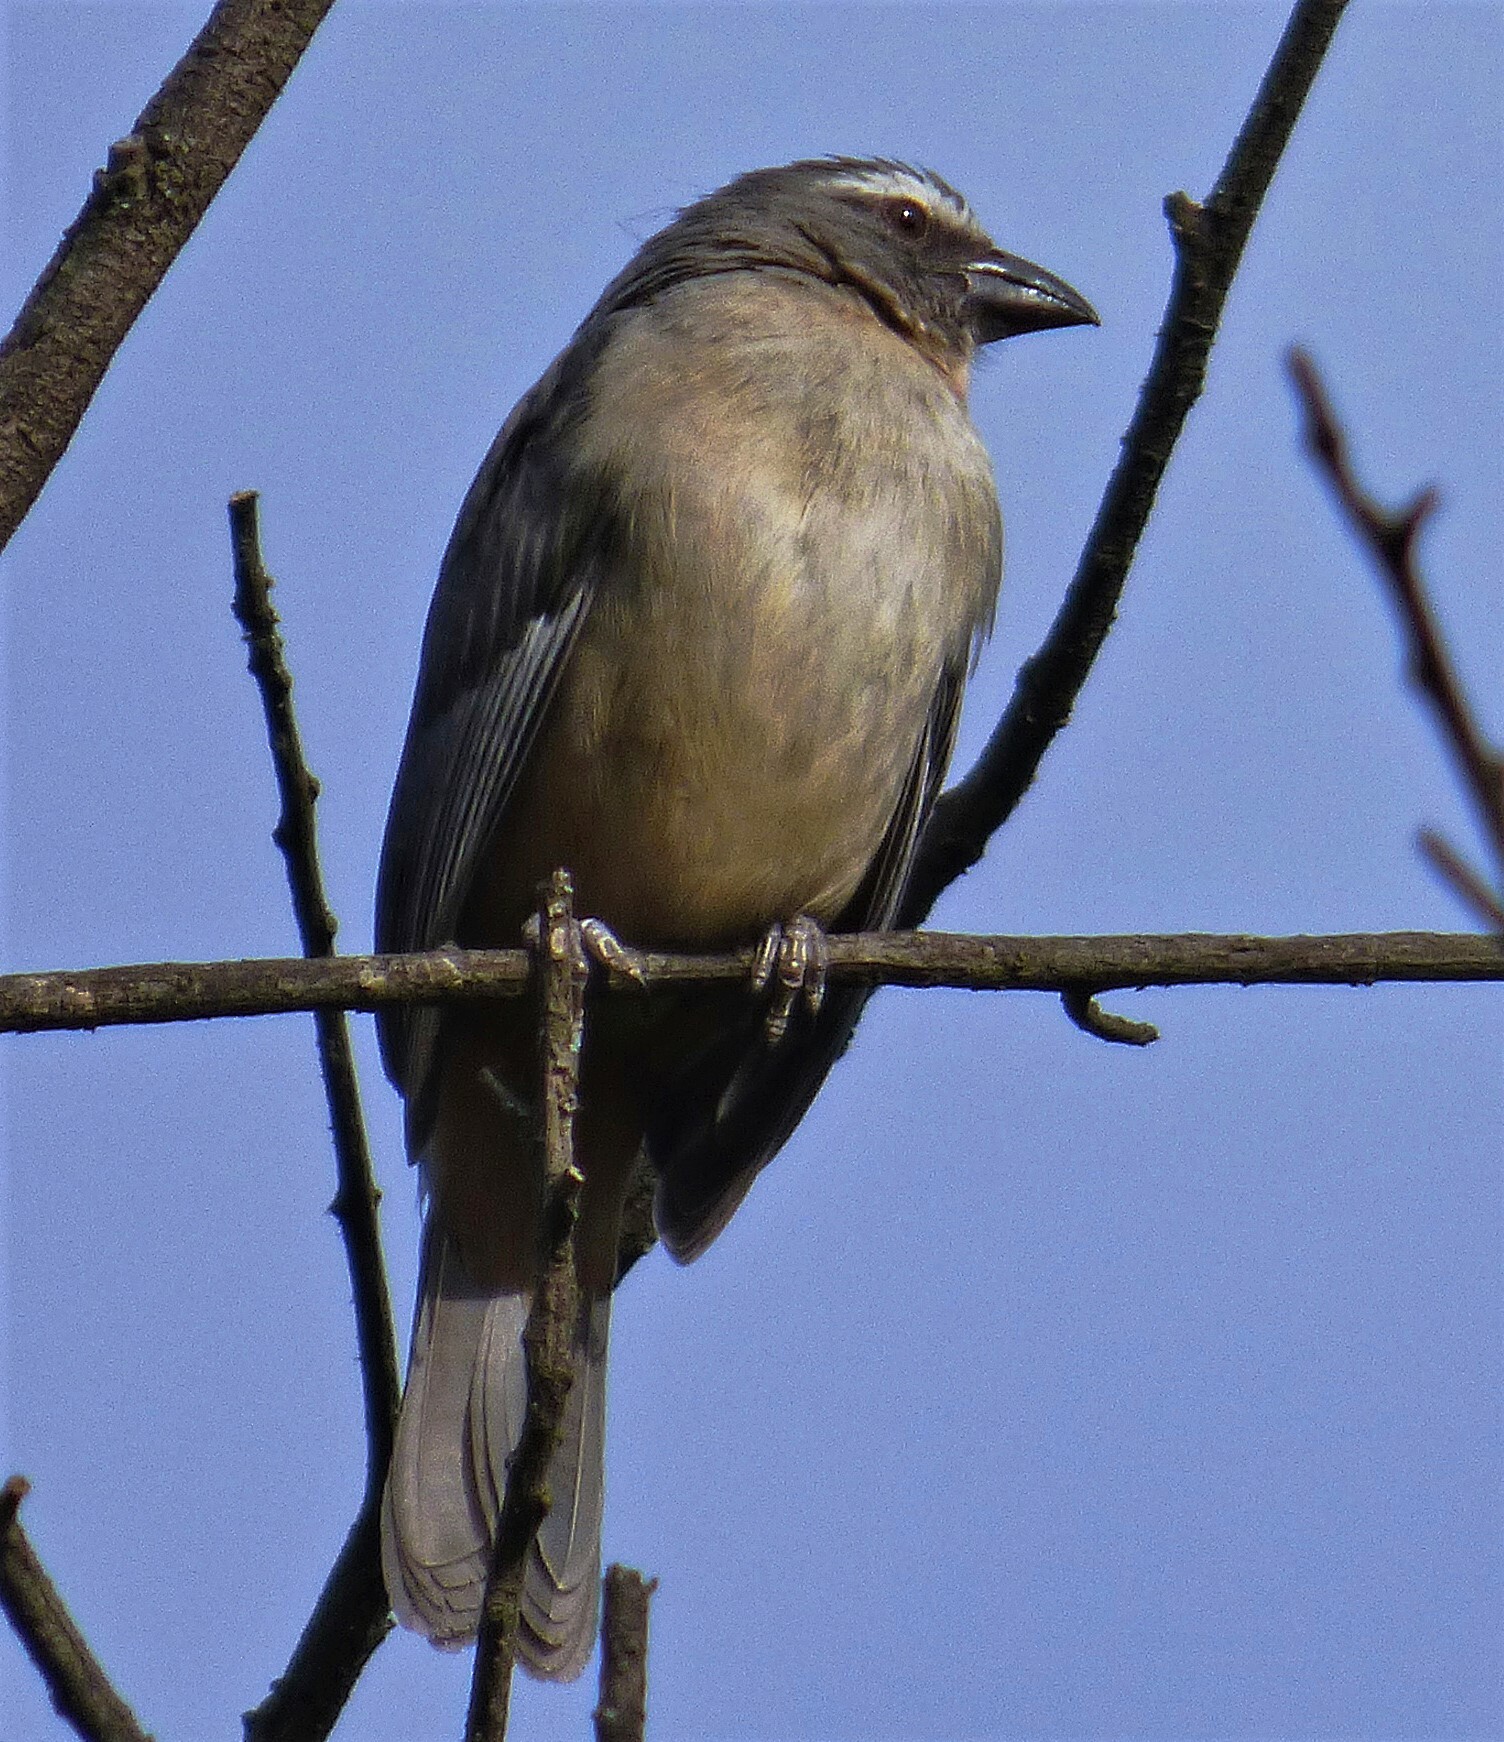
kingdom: Animalia
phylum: Chordata
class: Aves
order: Passeriformes
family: Thraupidae
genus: Saltator
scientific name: Saltator coerulescens
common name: Grayish saltator
